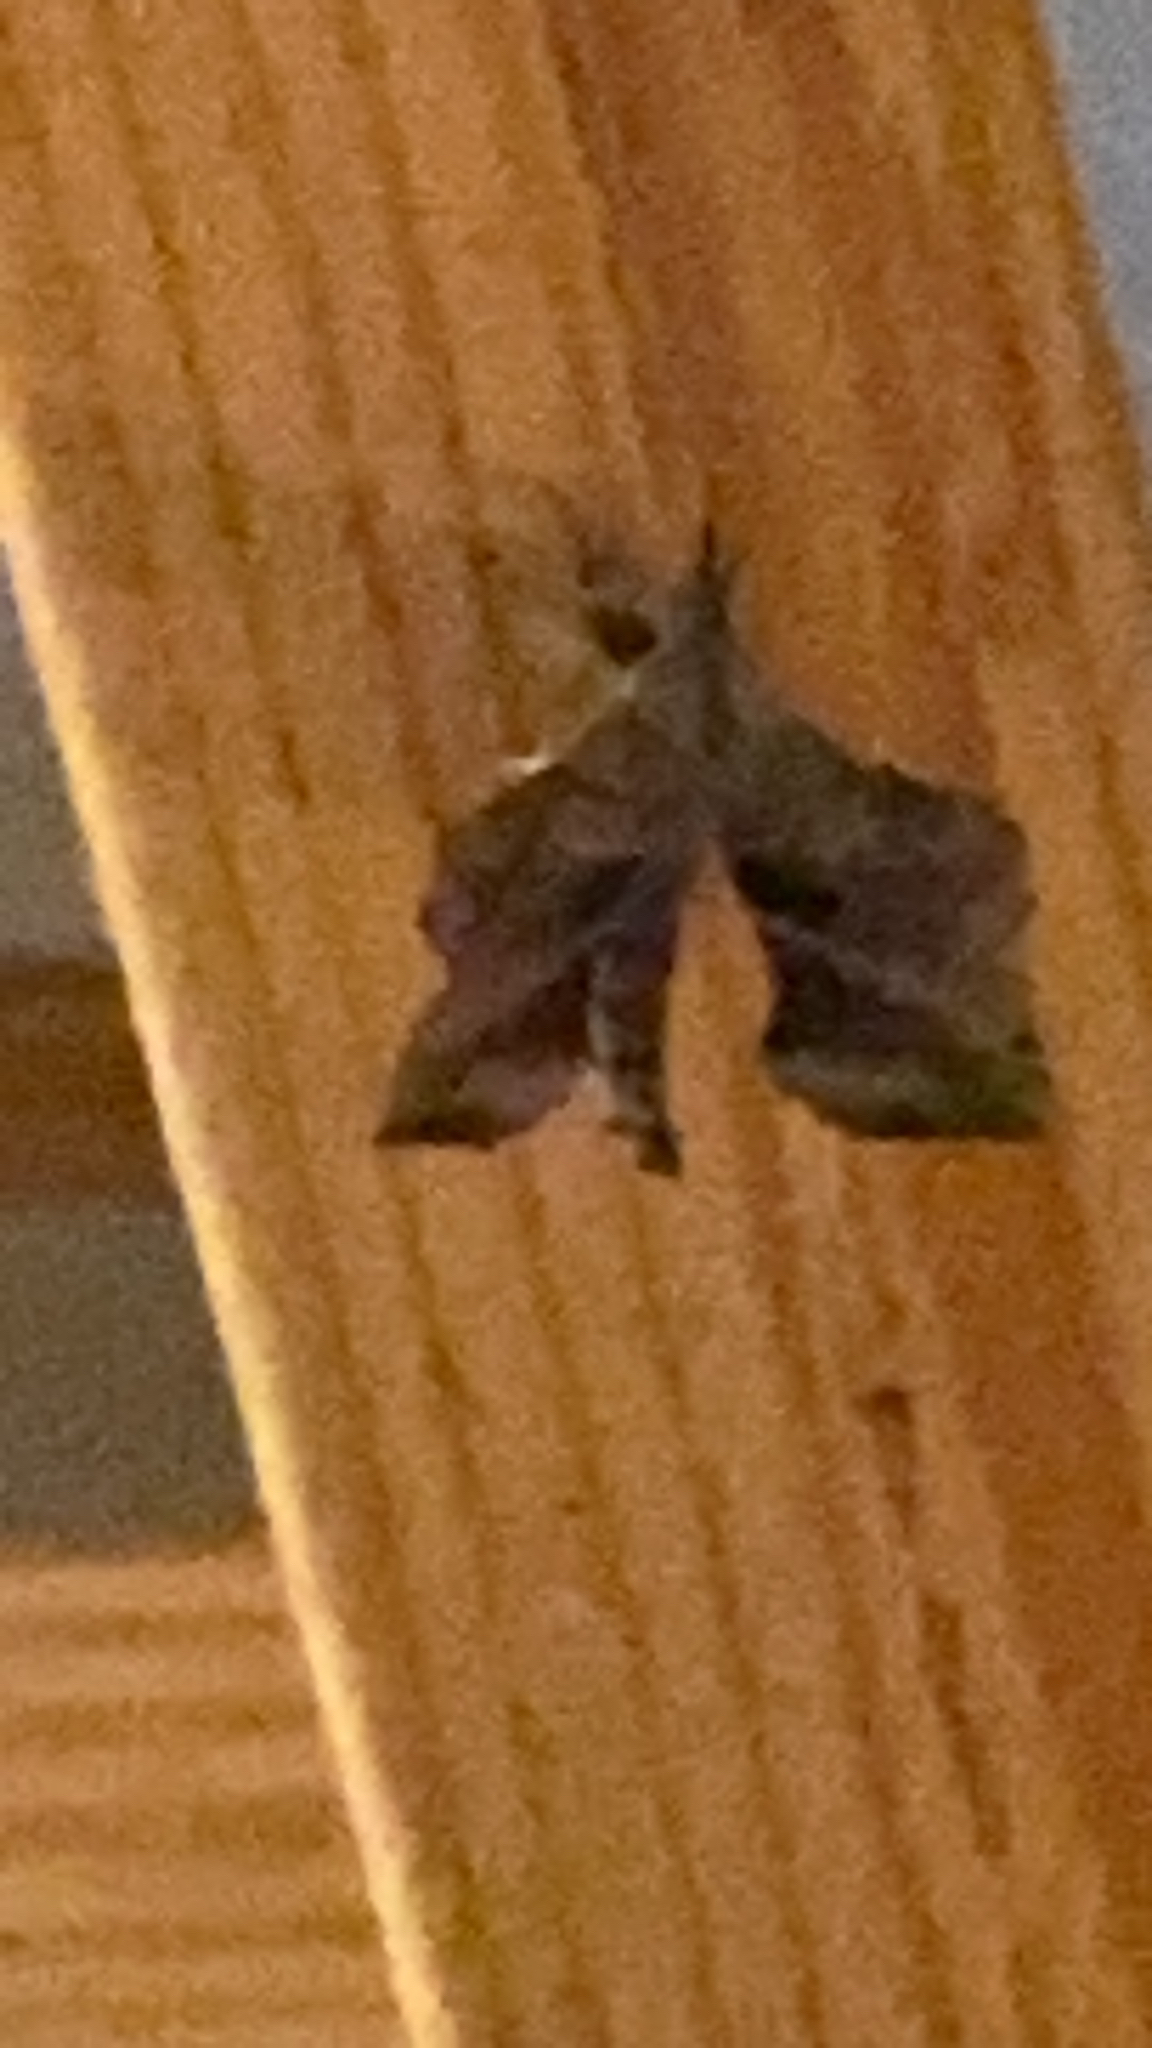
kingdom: Animalia
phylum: Arthropoda
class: Insecta
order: Lepidoptera
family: Sphingidae
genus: Amorpha
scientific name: Amorpha juglandis
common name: Walnut sphinx
